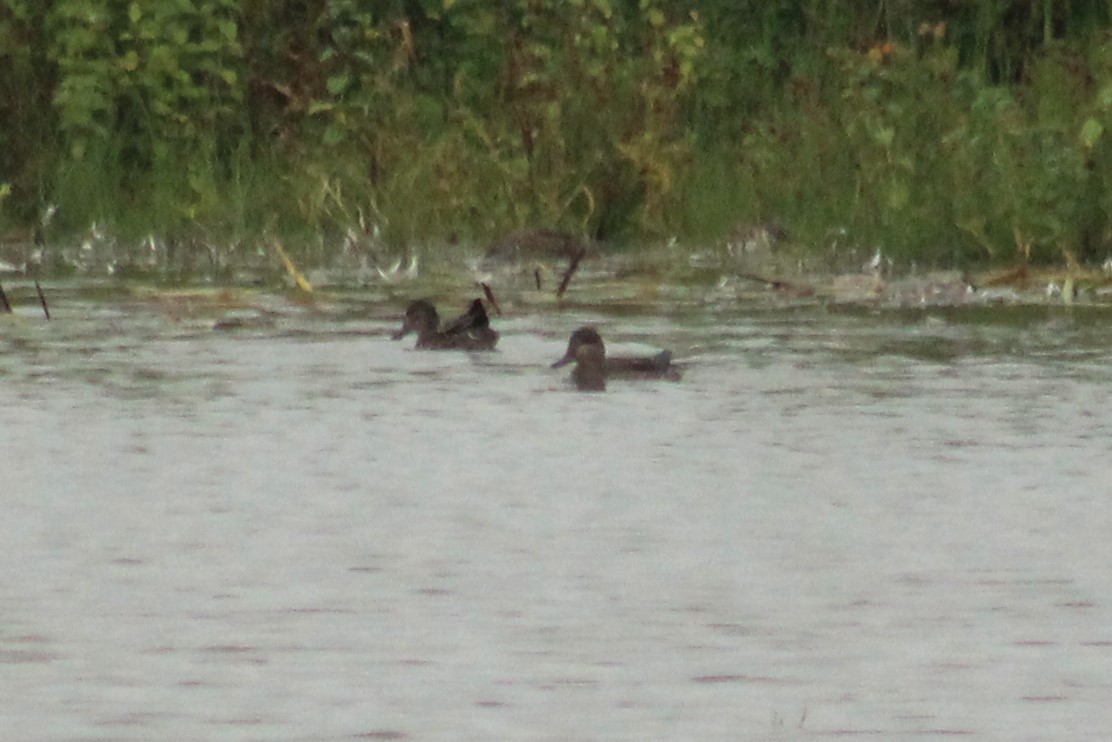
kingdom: Animalia
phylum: Chordata
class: Aves
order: Anseriformes
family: Anatidae
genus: Anas
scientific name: Anas crecca
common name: Eurasian teal
